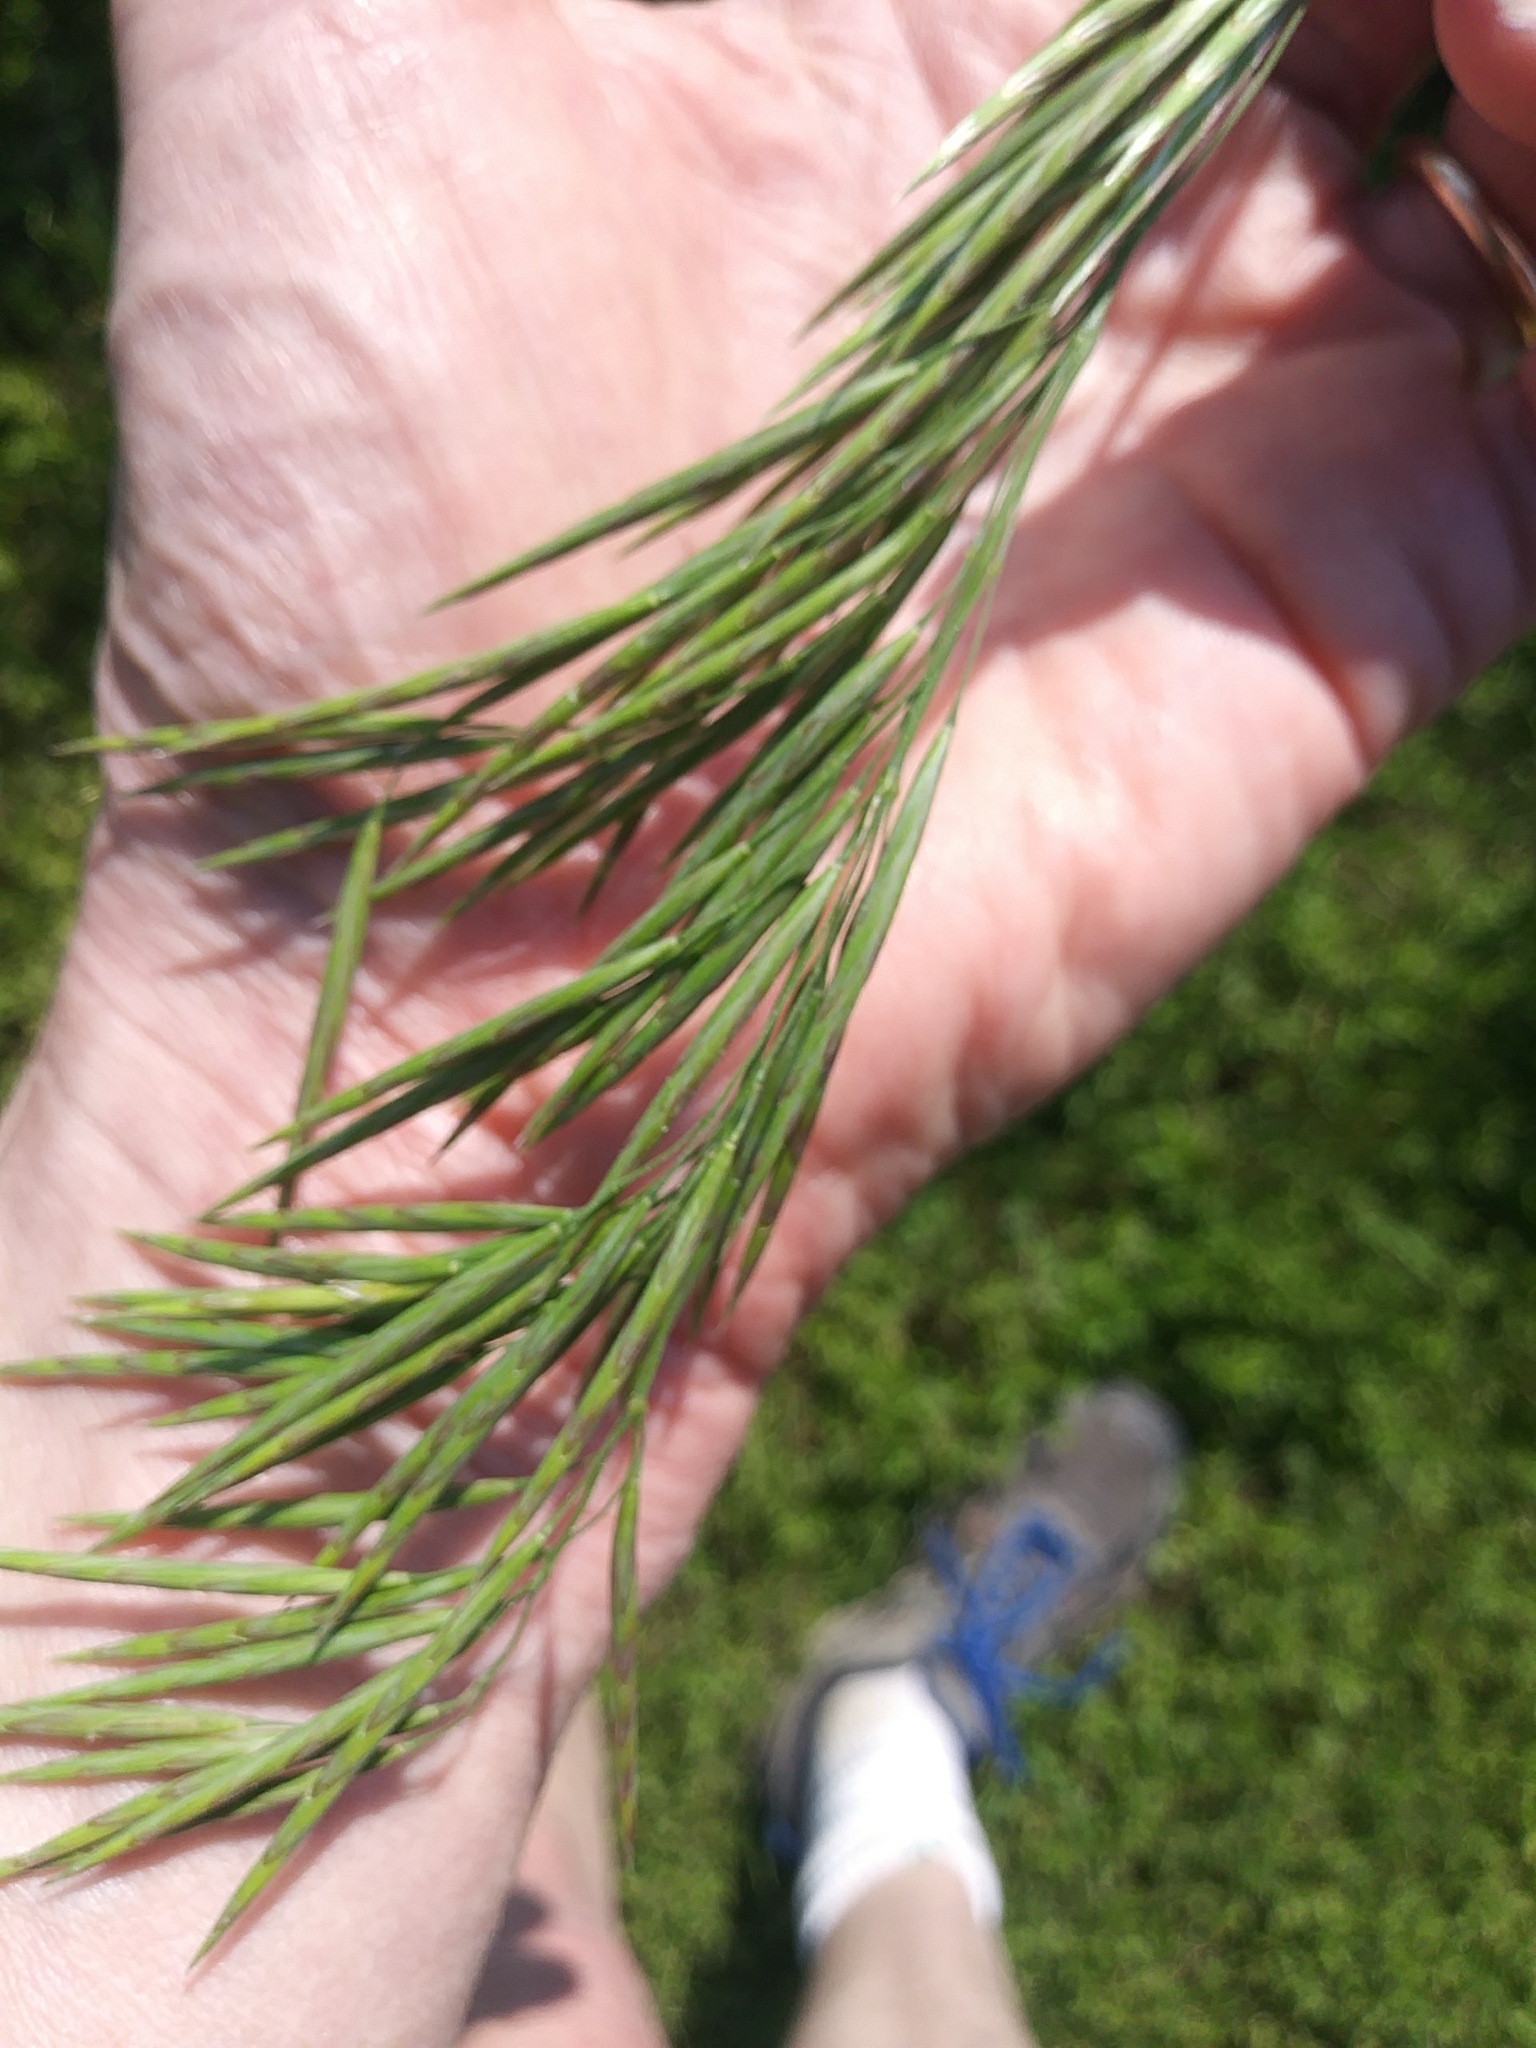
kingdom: Plantae
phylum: Tracheophyta
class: Liliopsida
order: Poales
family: Poaceae
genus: Bromus
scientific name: Bromus inermis
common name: Smooth brome
